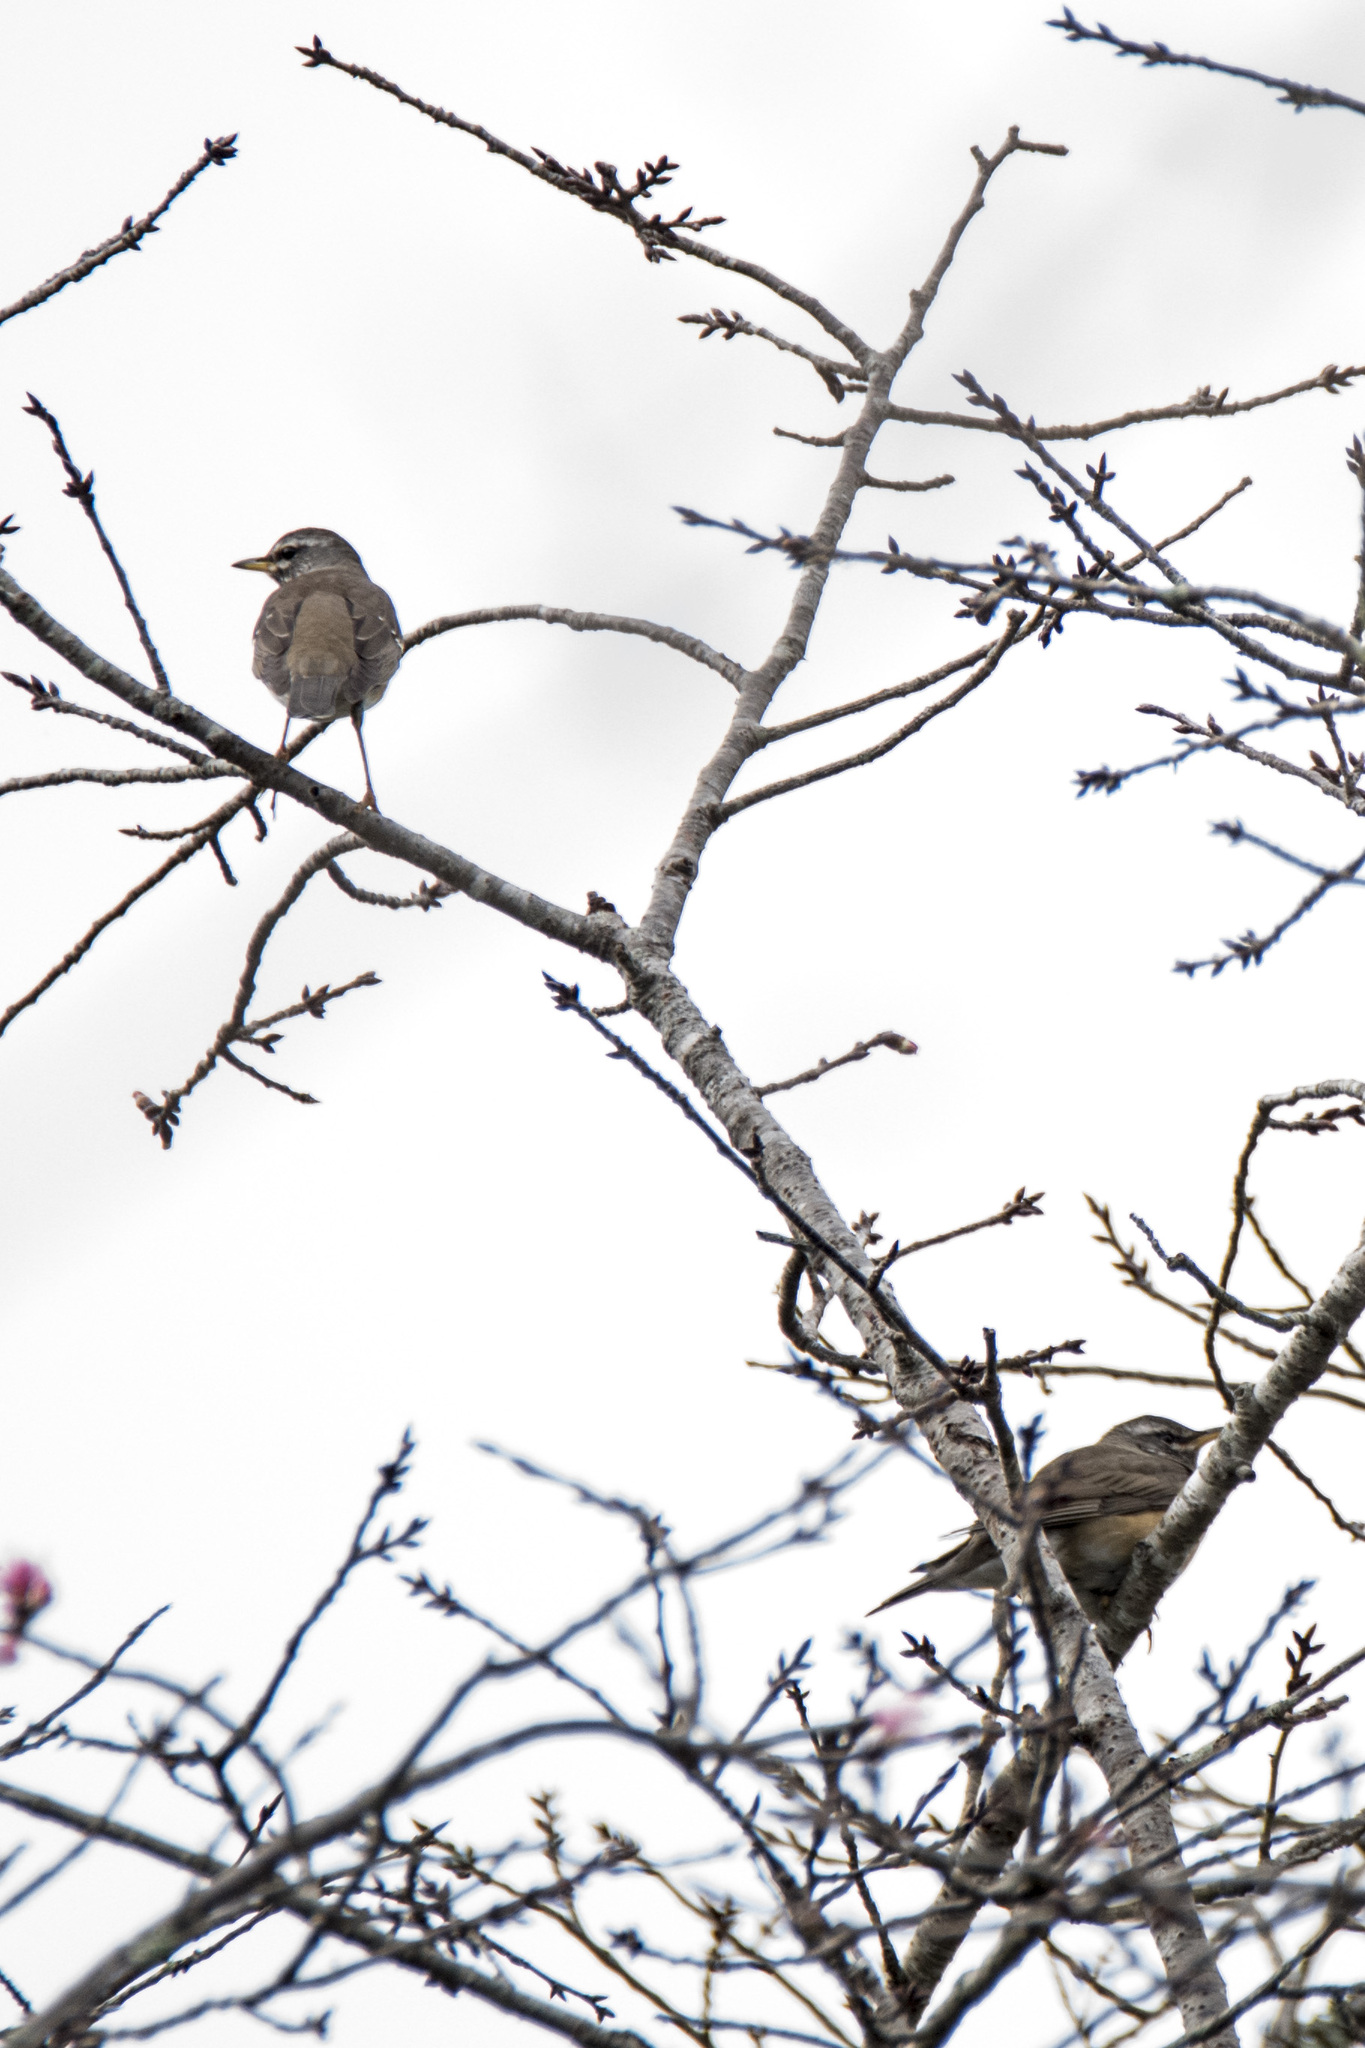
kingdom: Animalia
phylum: Chordata
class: Aves
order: Passeriformes
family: Turdidae
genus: Turdus
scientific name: Turdus obscurus
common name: Eyebrowed thrush
